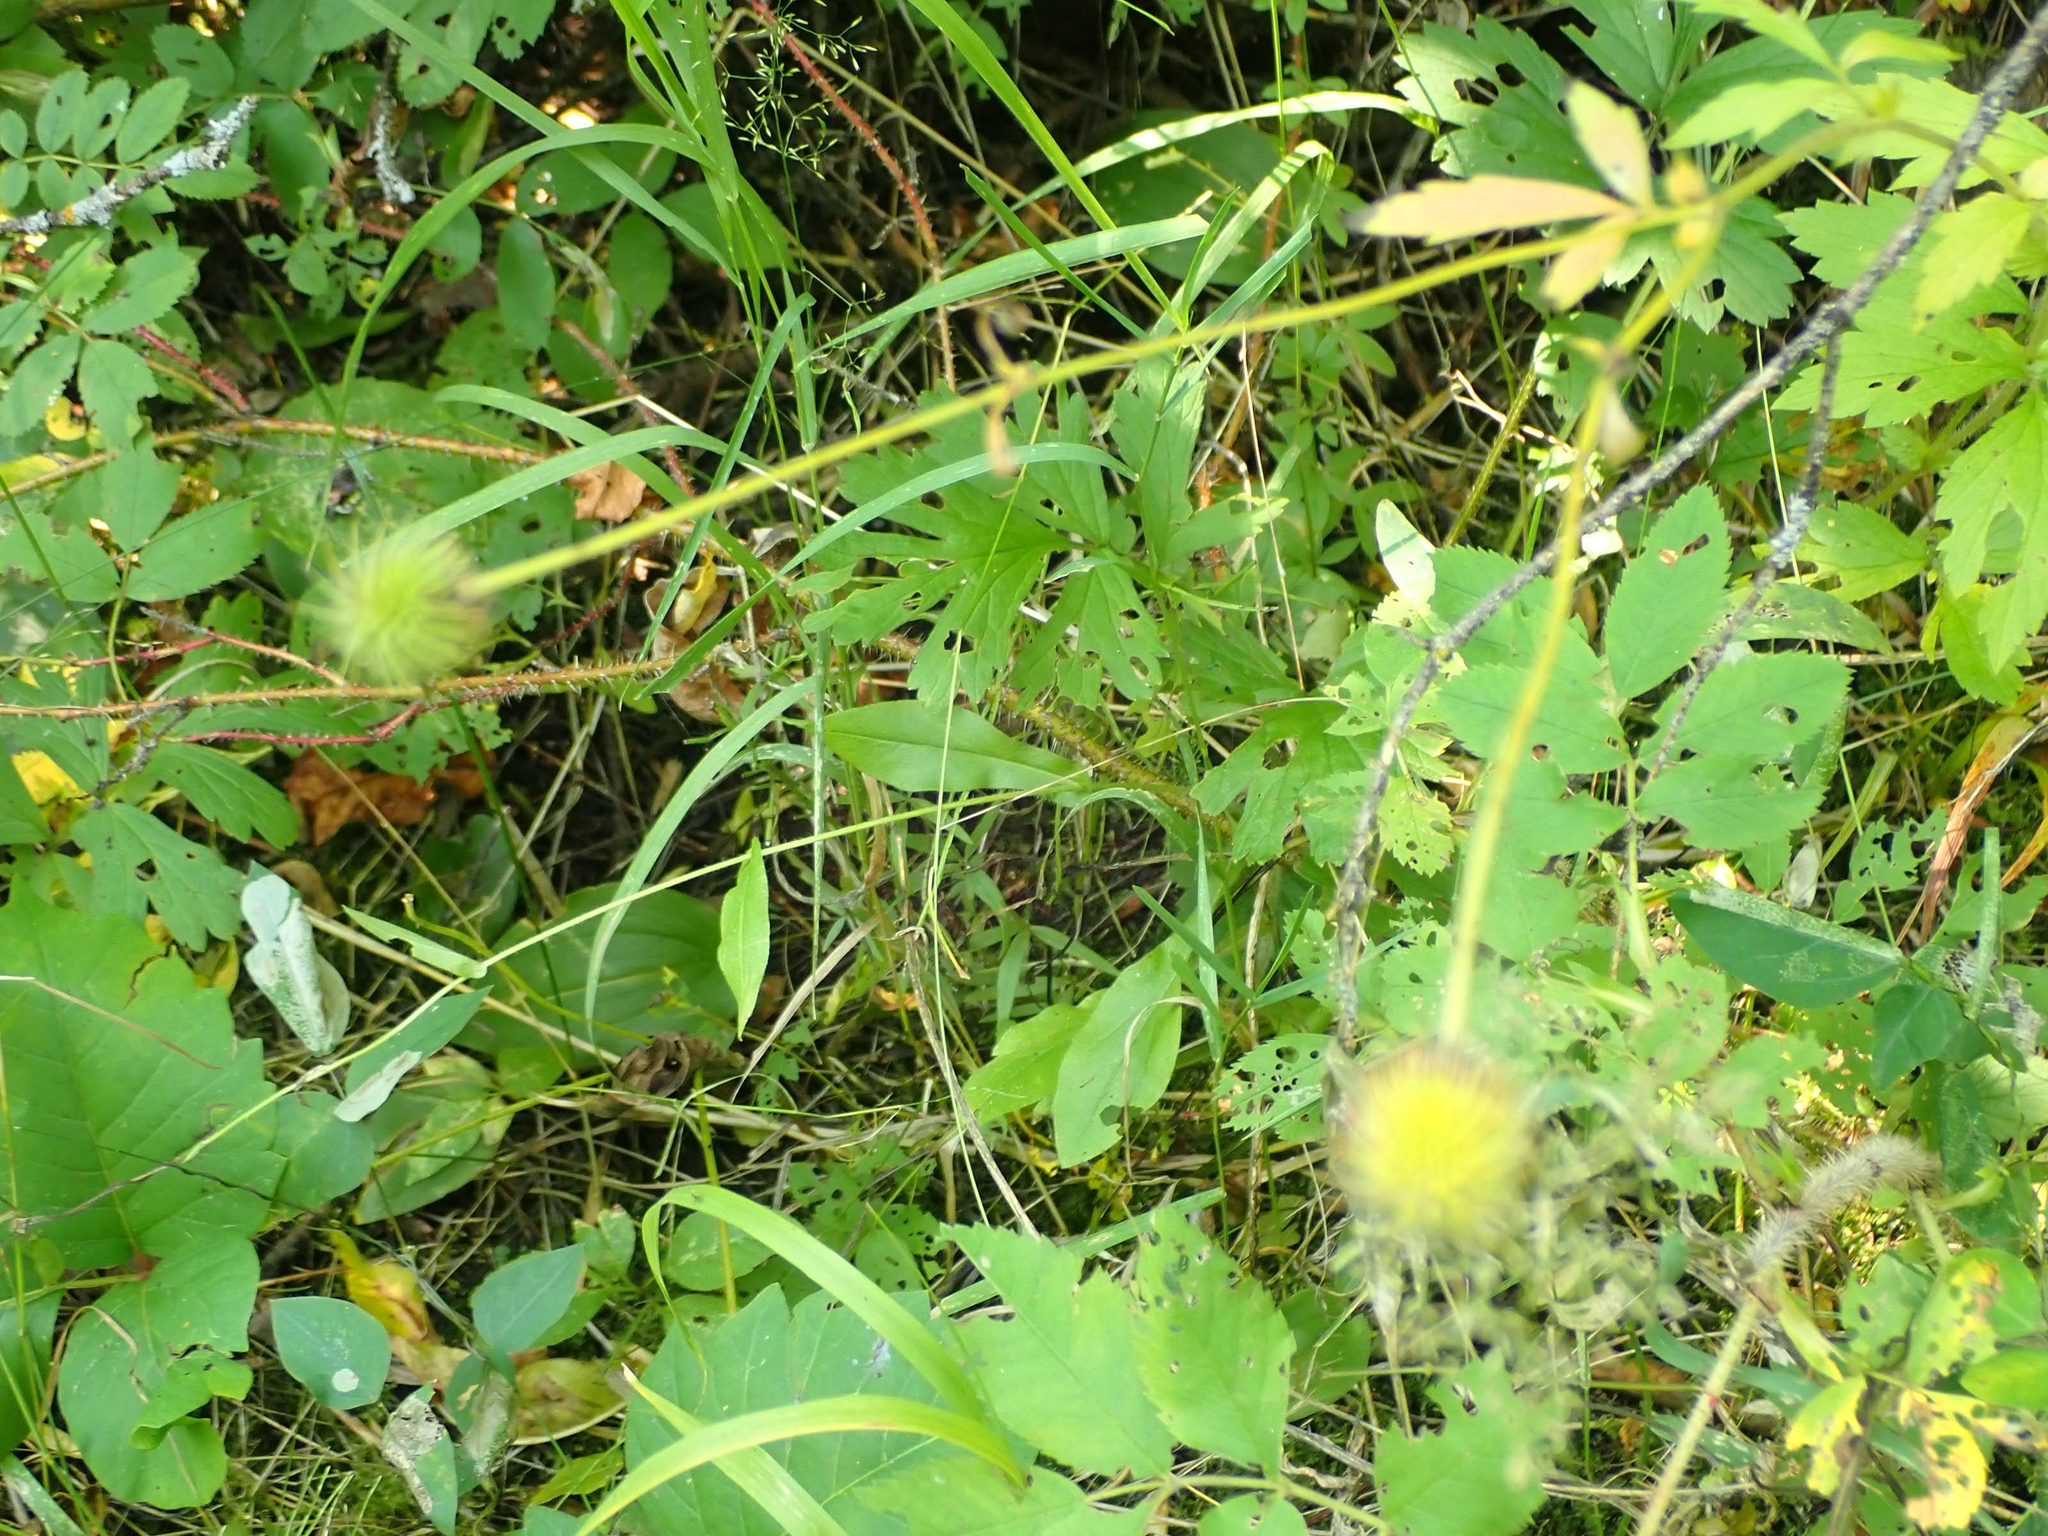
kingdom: Plantae
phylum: Tracheophyta
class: Magnoliopsida
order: Rosales
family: Rosaceae
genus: Geum
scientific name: Geum aleppicum
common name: Yellow avens
